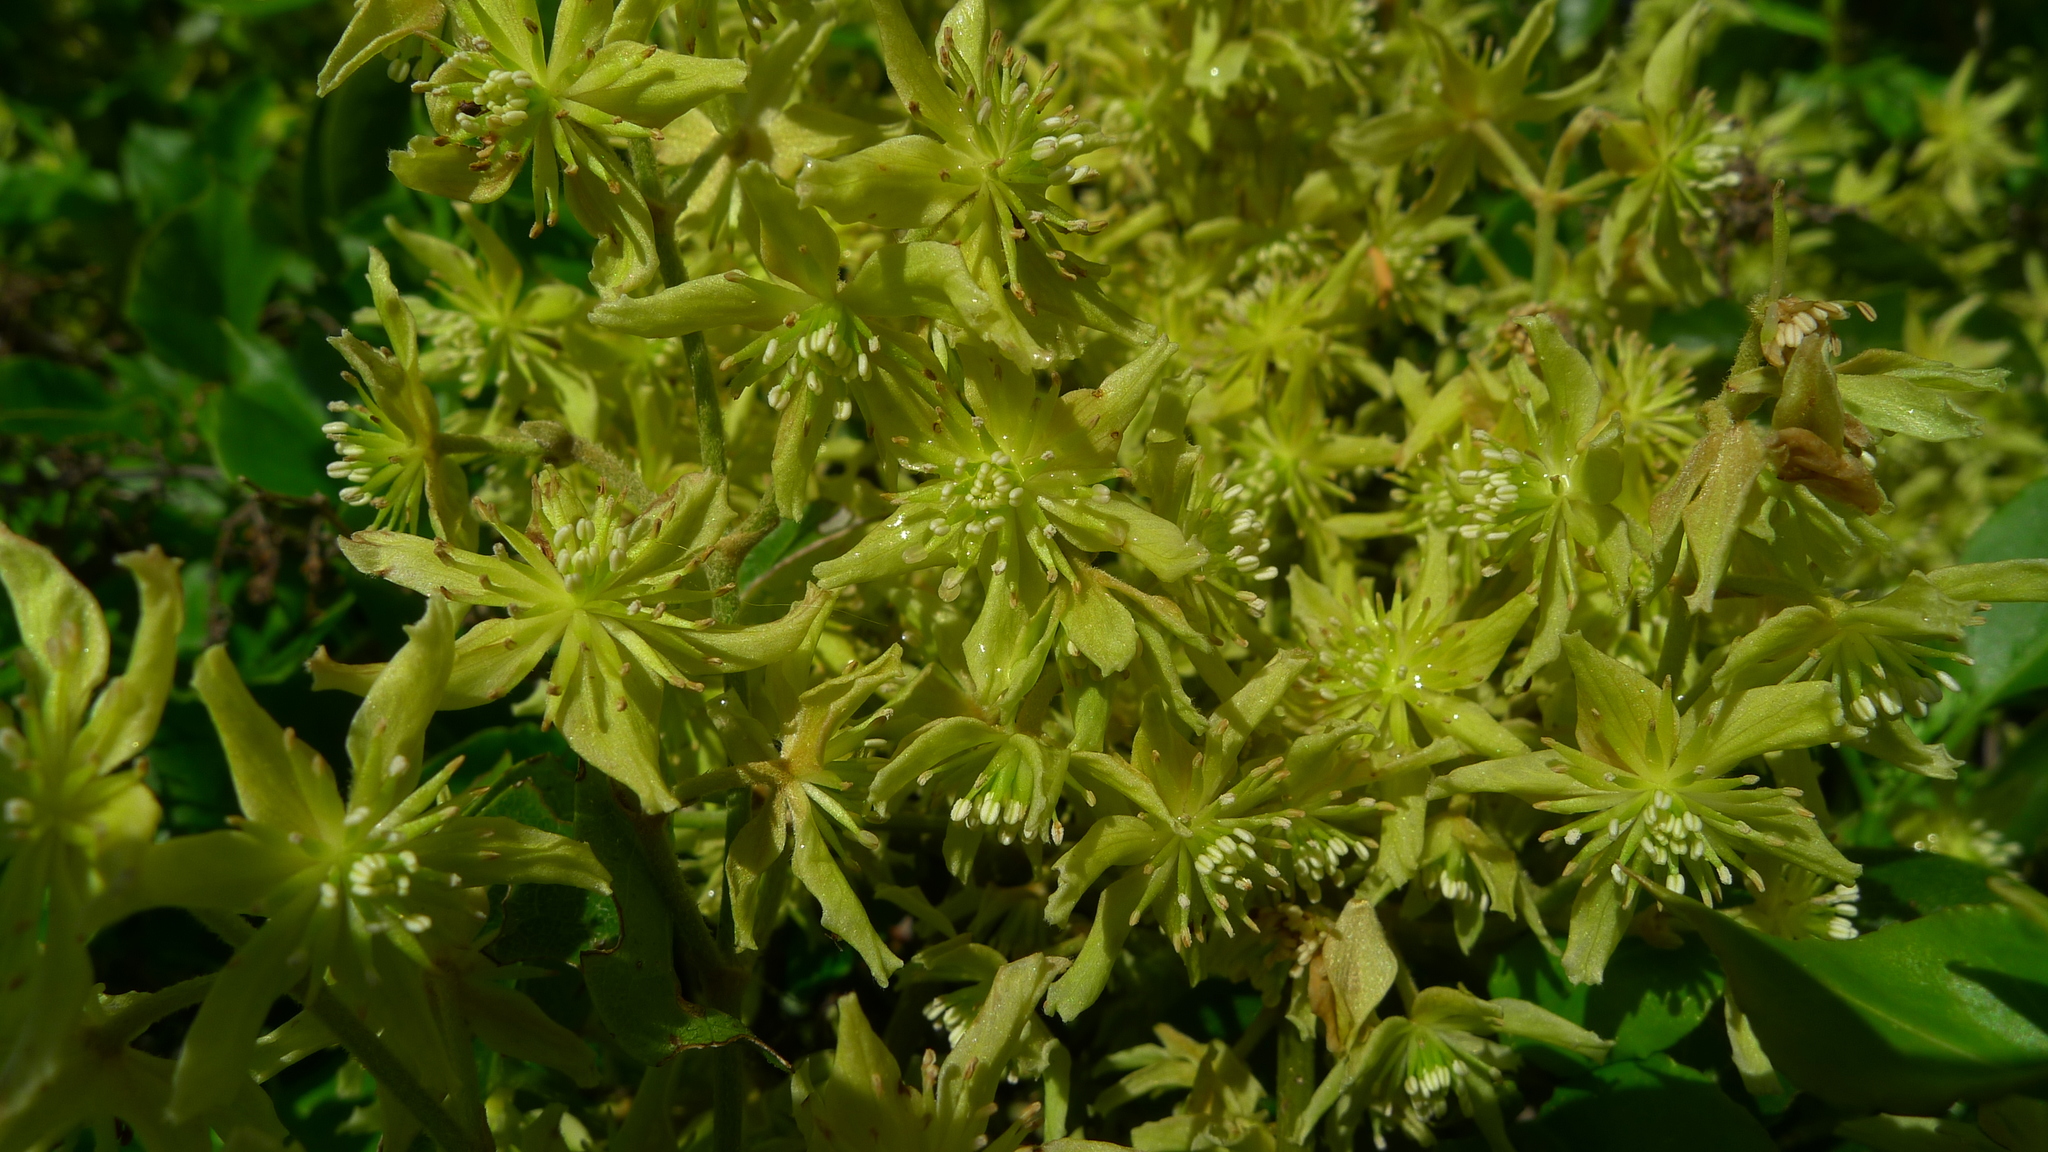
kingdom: Plantae
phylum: Tracheophyta
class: Magnoliopsida
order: Ranunculales
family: Ranunculaceae
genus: Clematis
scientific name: Clematis foetida
